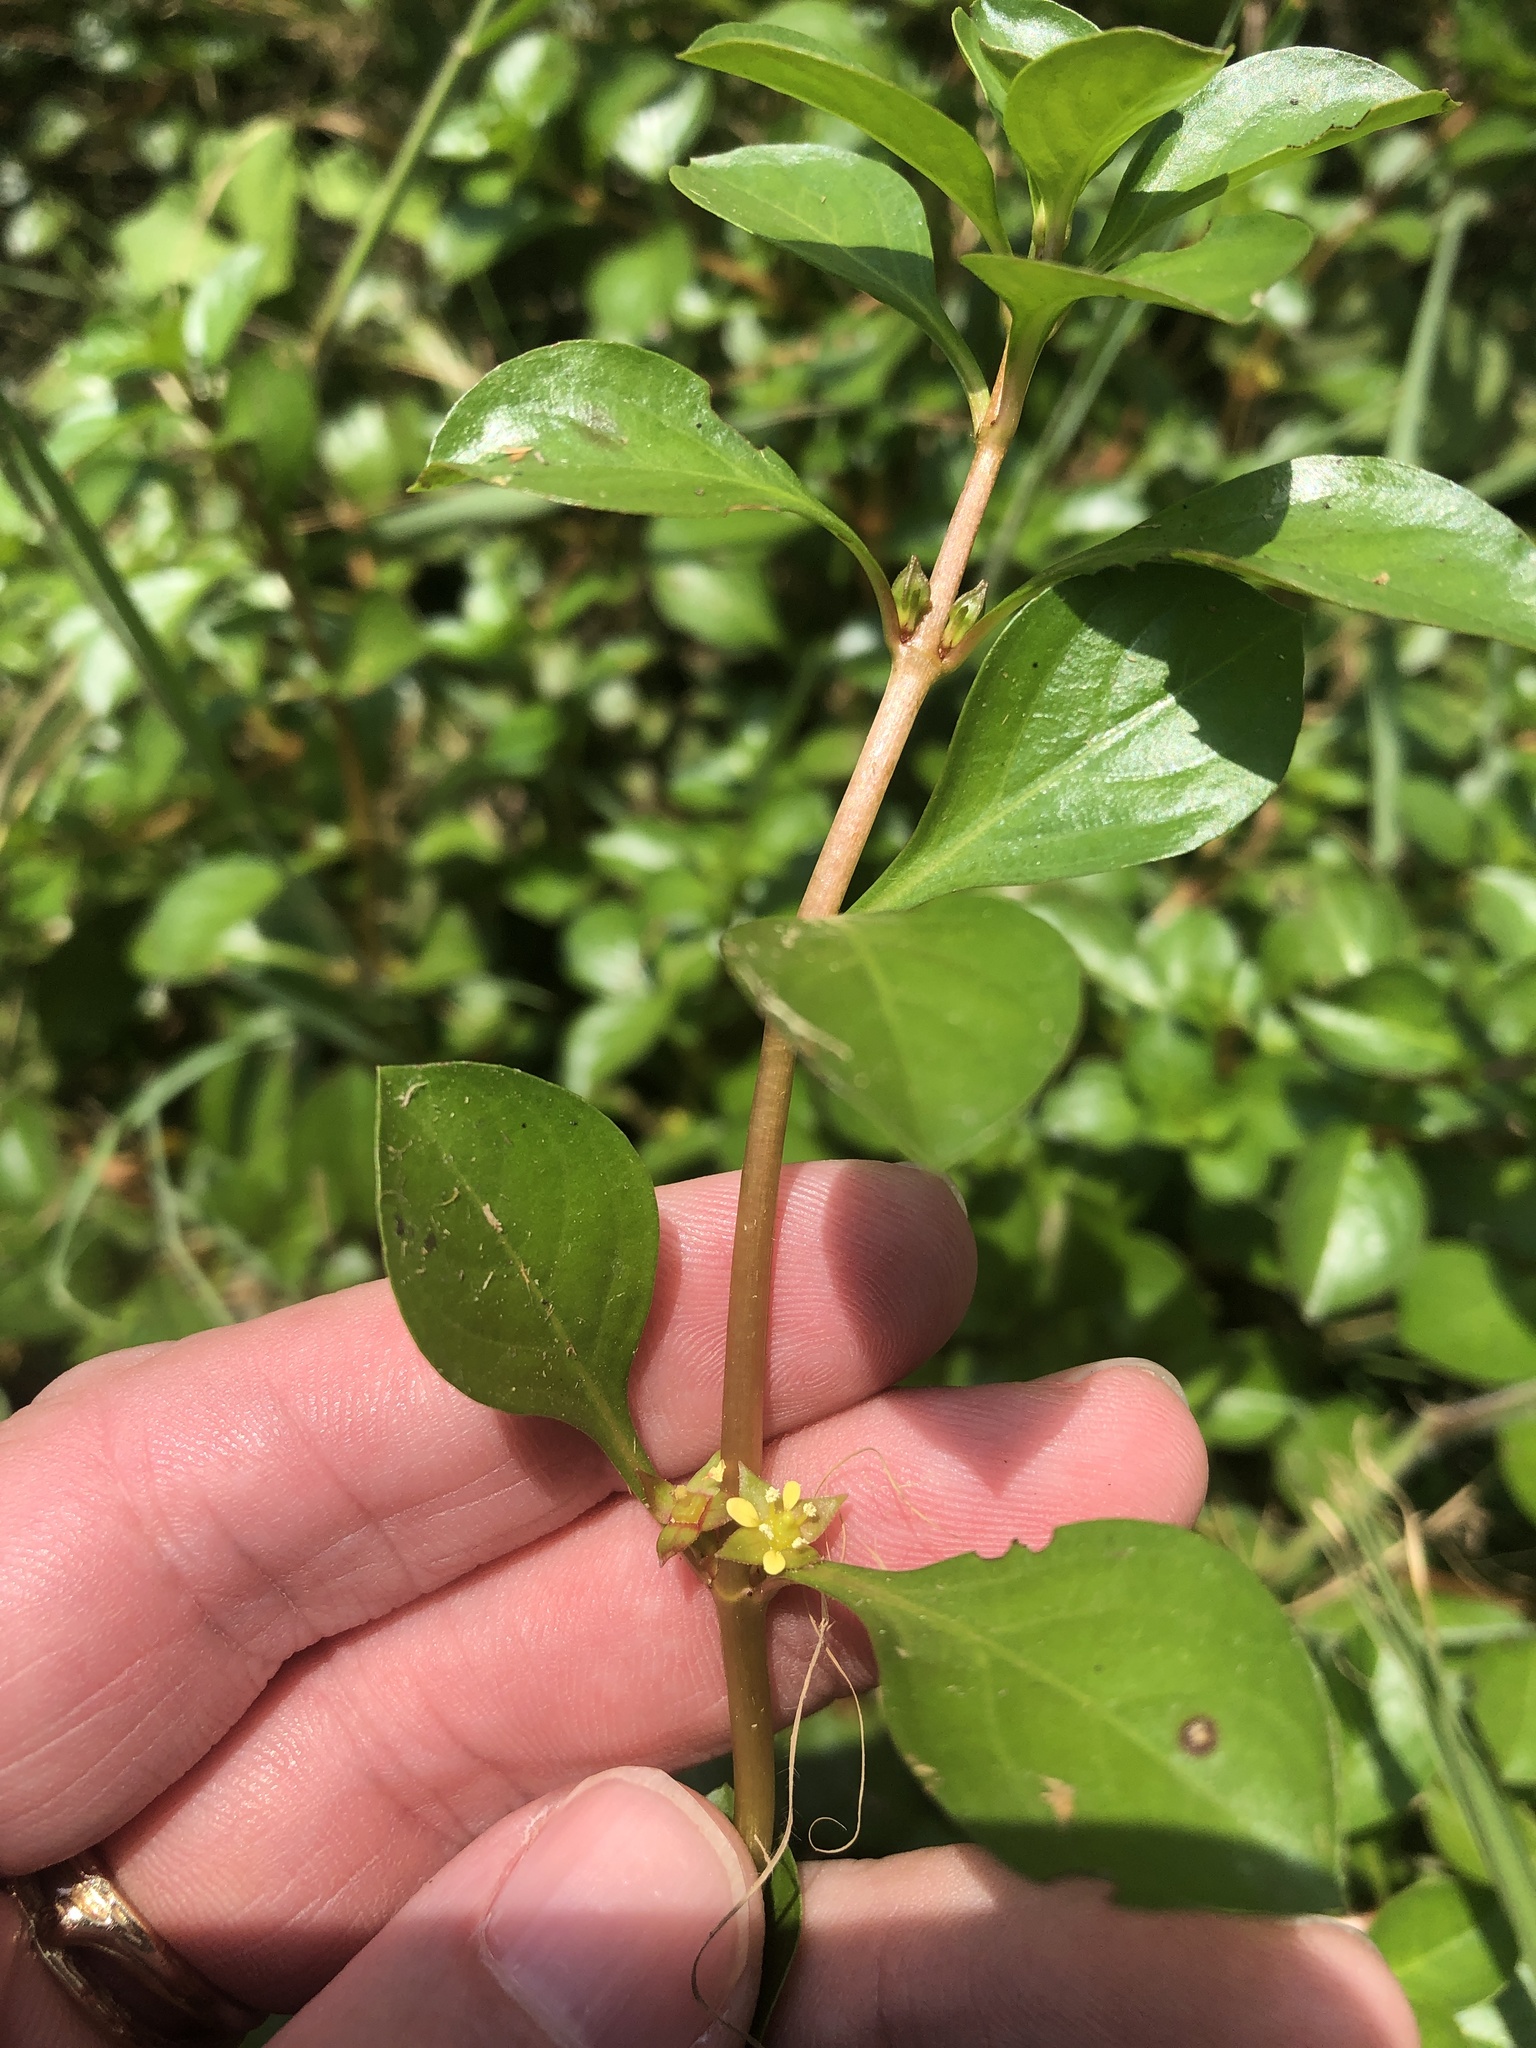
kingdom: Plantae
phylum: Tracheophyta
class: Magnoliopsida
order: Myrtales
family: Onagraceae
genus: Ludwigia
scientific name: Ludwigia repens
